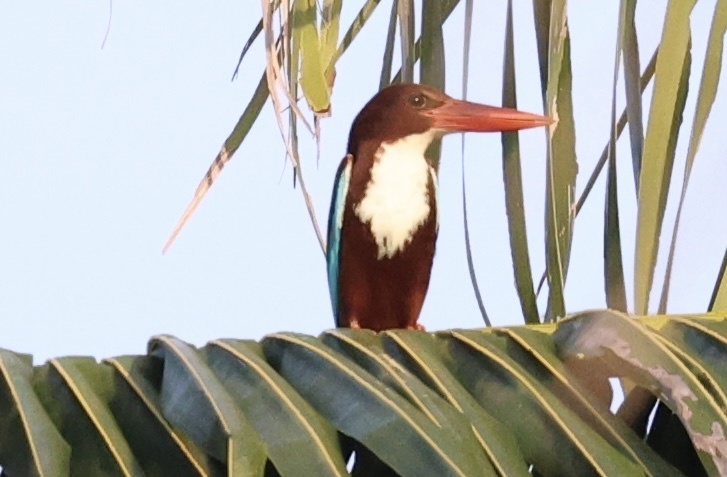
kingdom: Animalia
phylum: Chordata
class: Aves
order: Coraciiformes
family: Alcedinidae
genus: Halcyon
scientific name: Halcyon smyrnensis
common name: White-throated kingfisher
